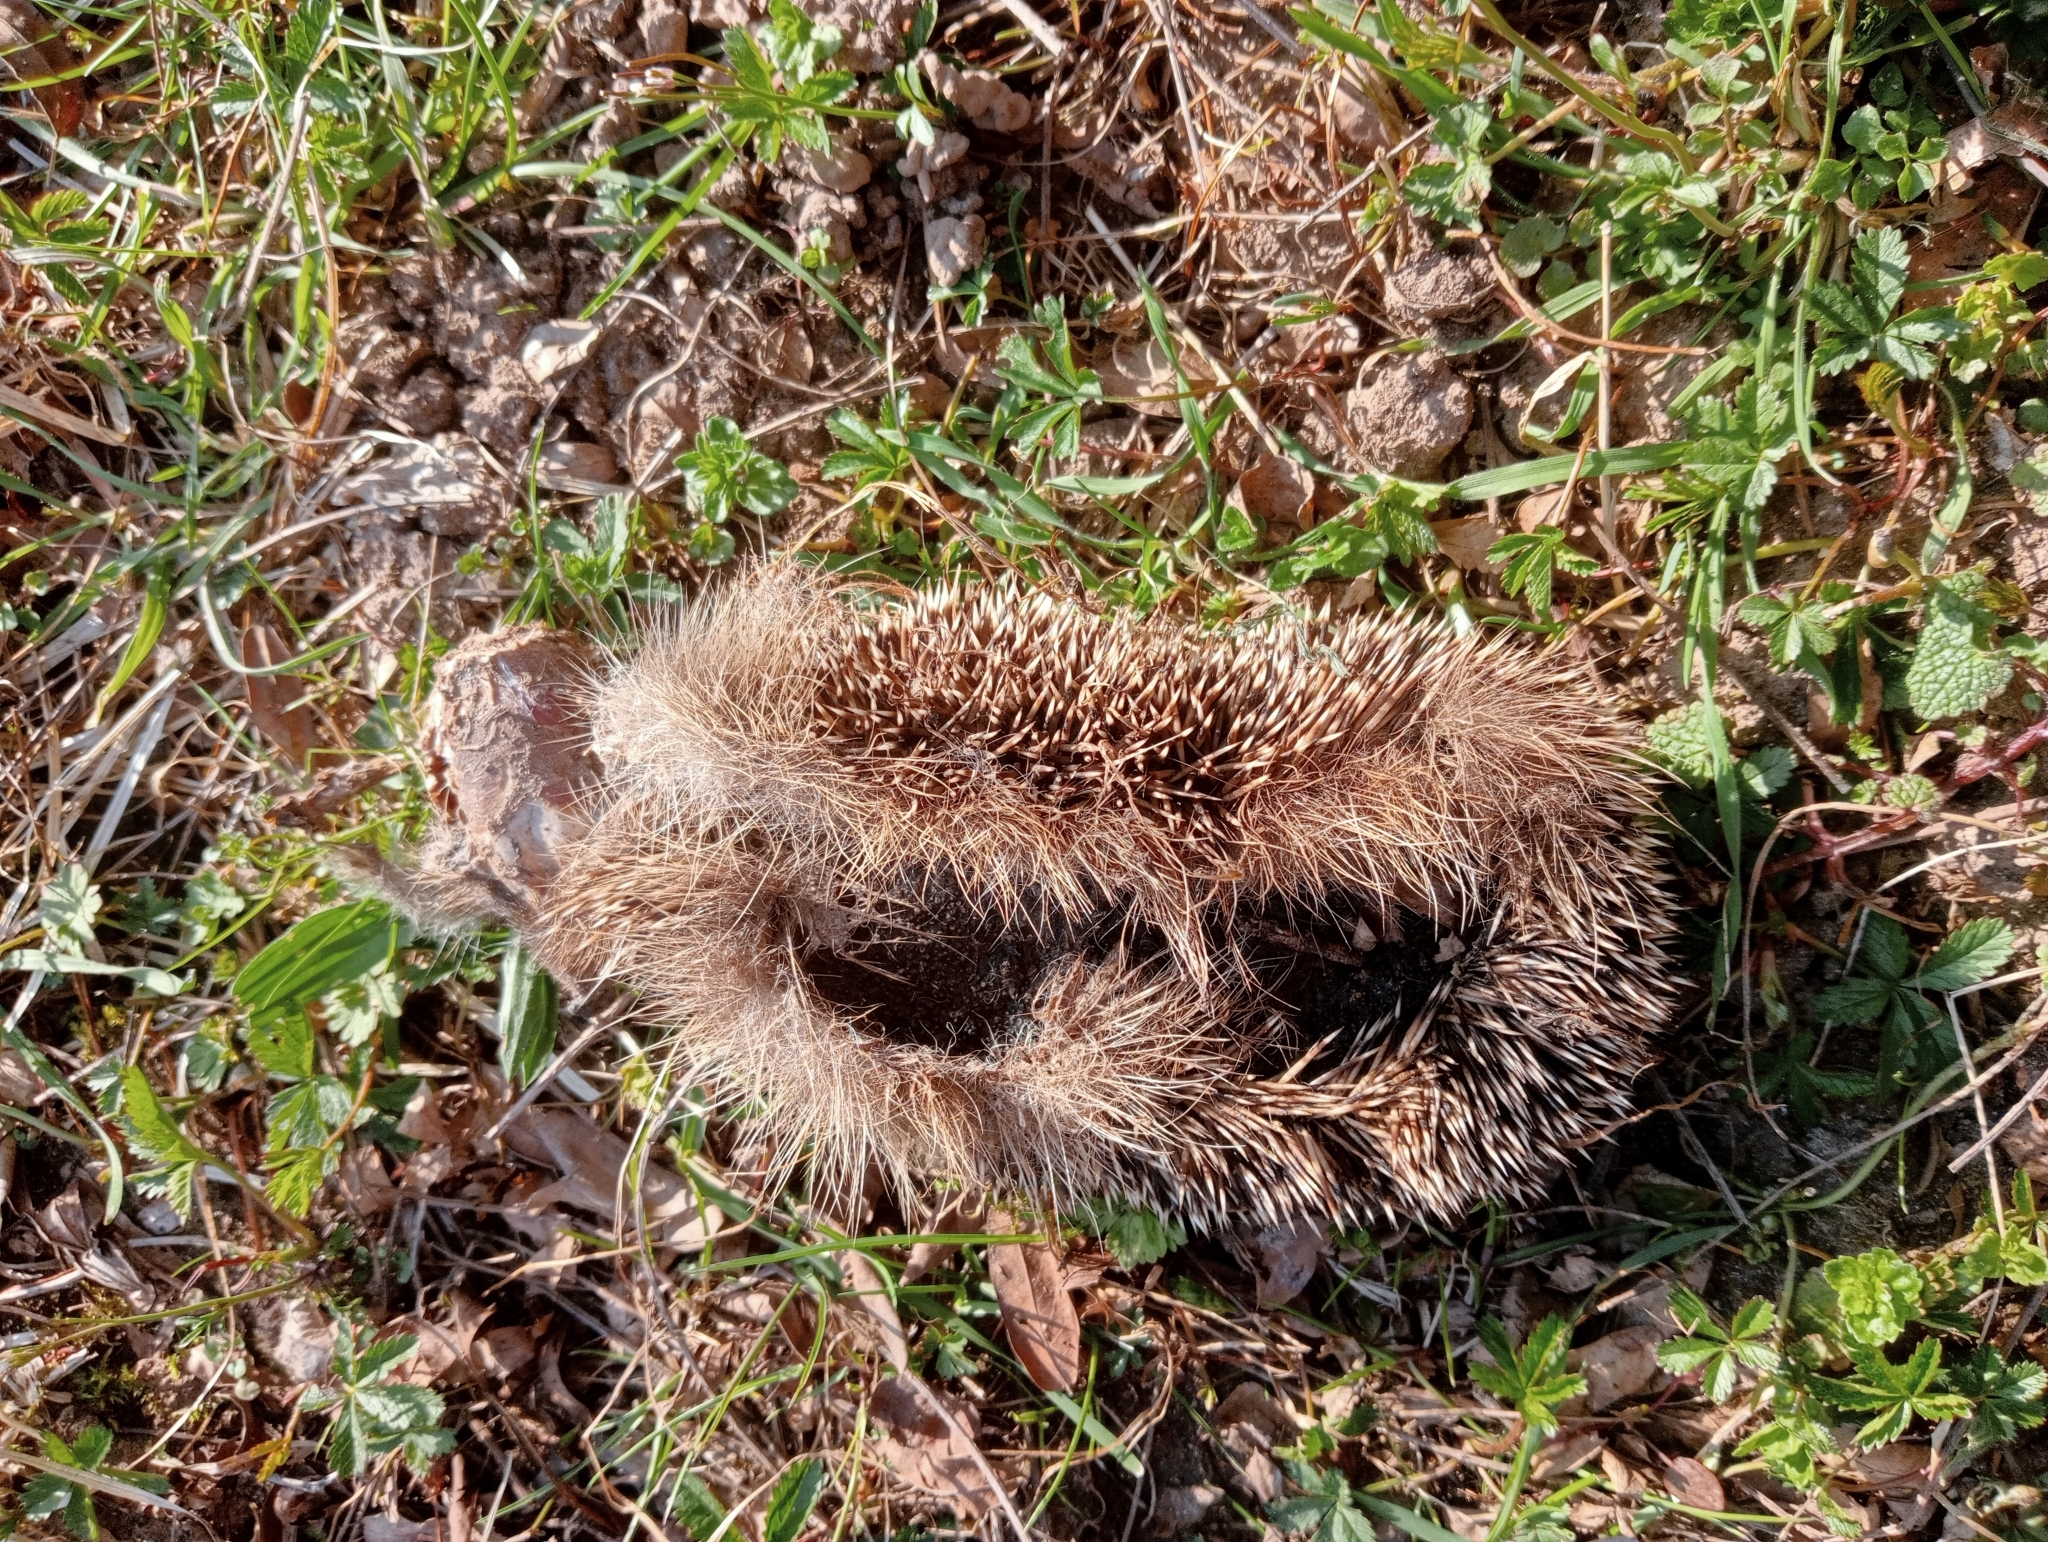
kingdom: Animalia
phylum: Chordata
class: Mammalia
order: Erinaceomorpha
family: Erinaceidae
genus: Erinaceus
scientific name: Erinaceus europaeus
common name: West european hedgehog
